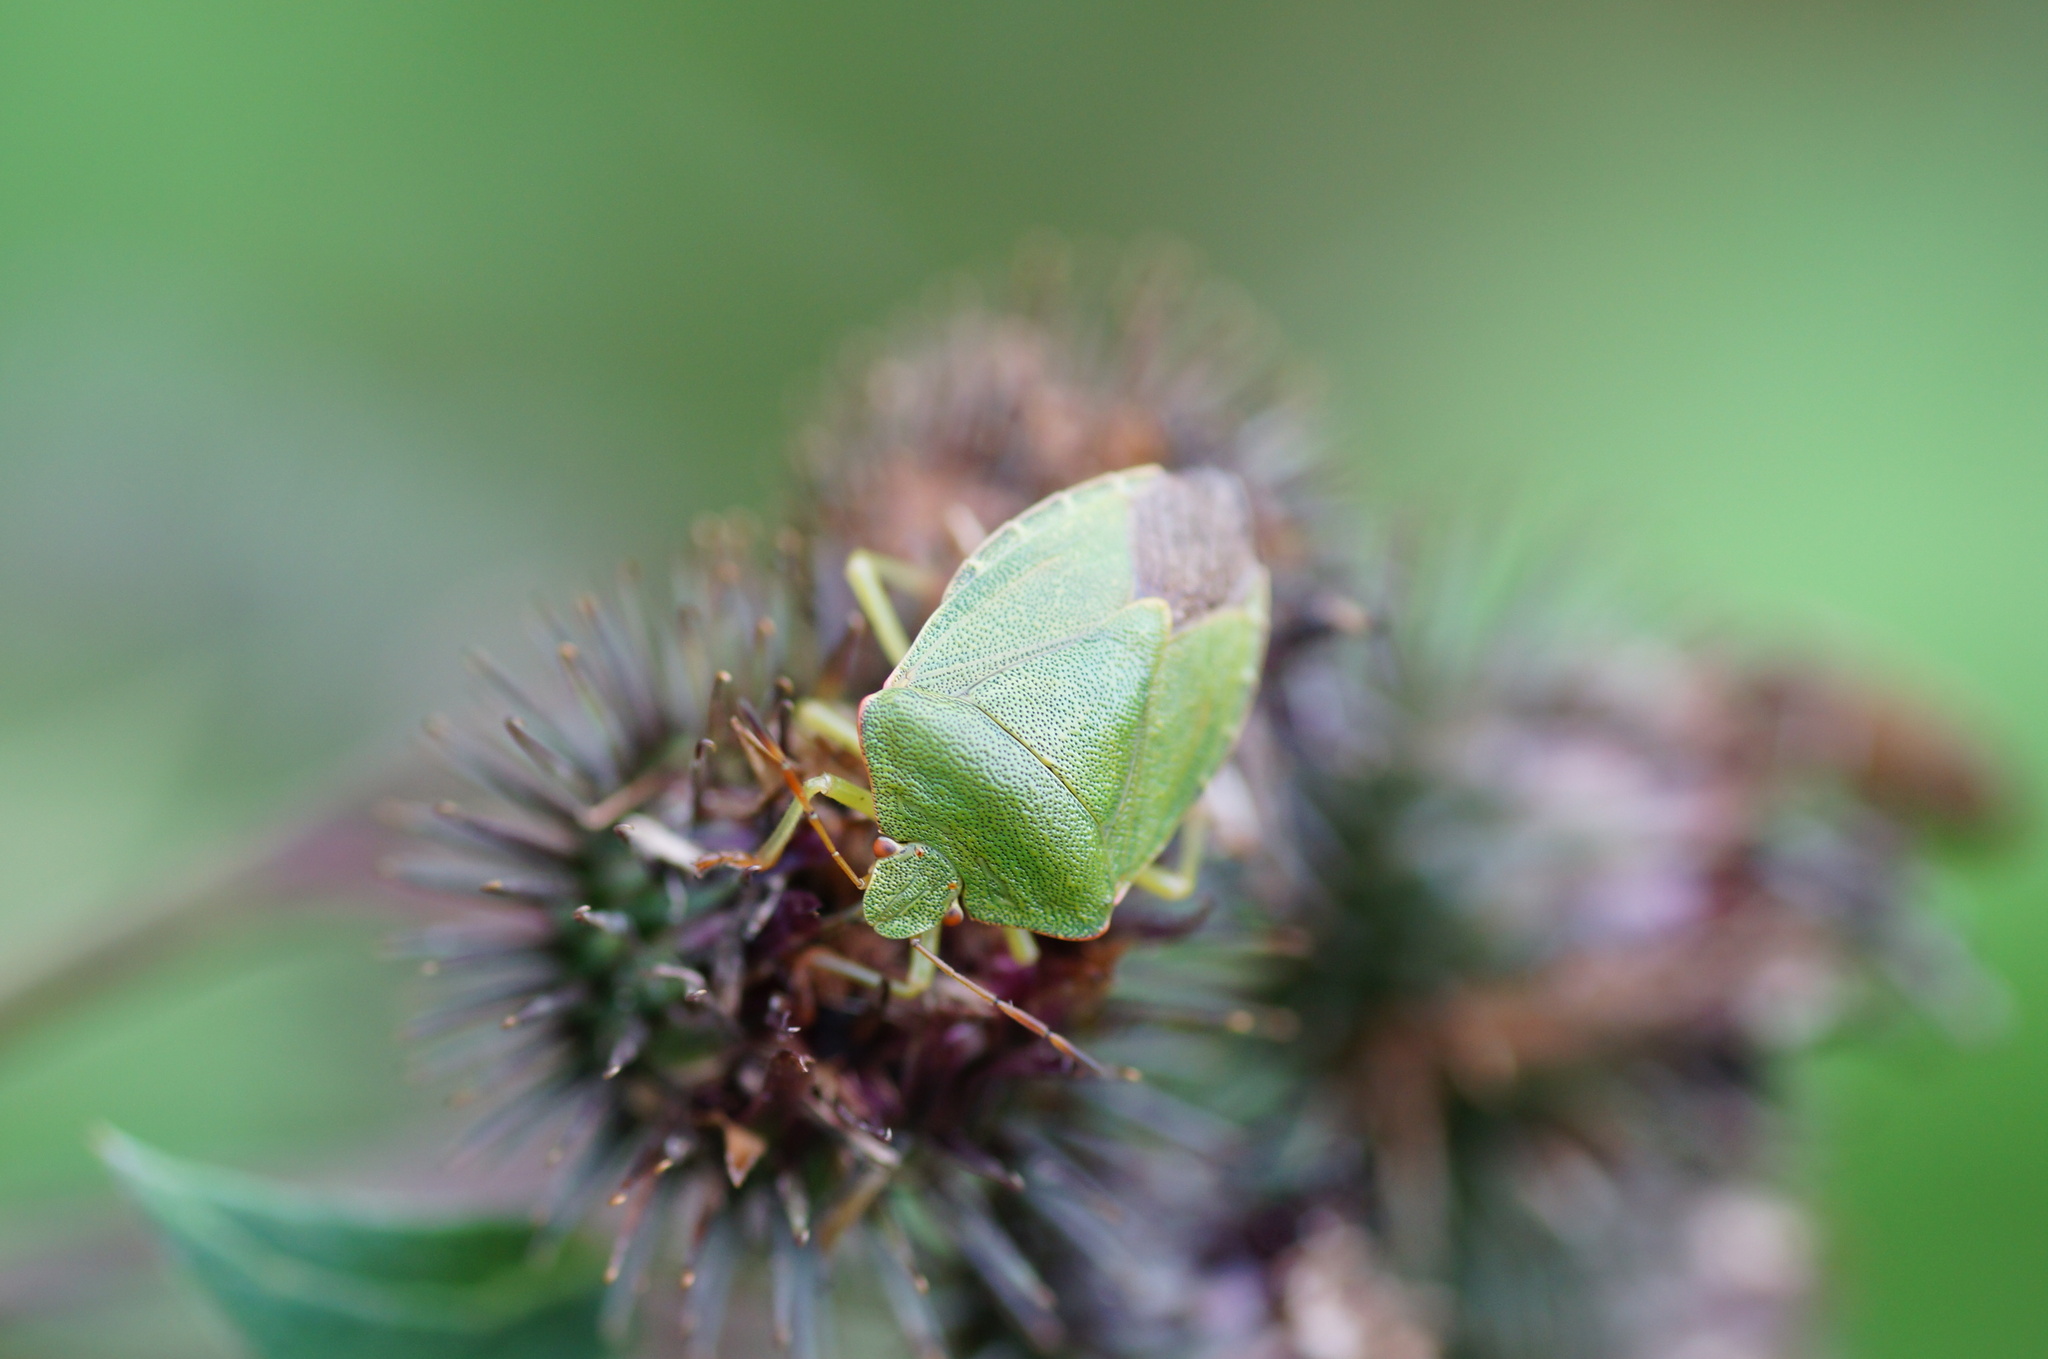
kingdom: Animalia
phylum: Arthropoda
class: Insecta
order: Hemiptera
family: Pentatomidae
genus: Palomena
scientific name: Palomena prasina
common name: Green shieldbug
